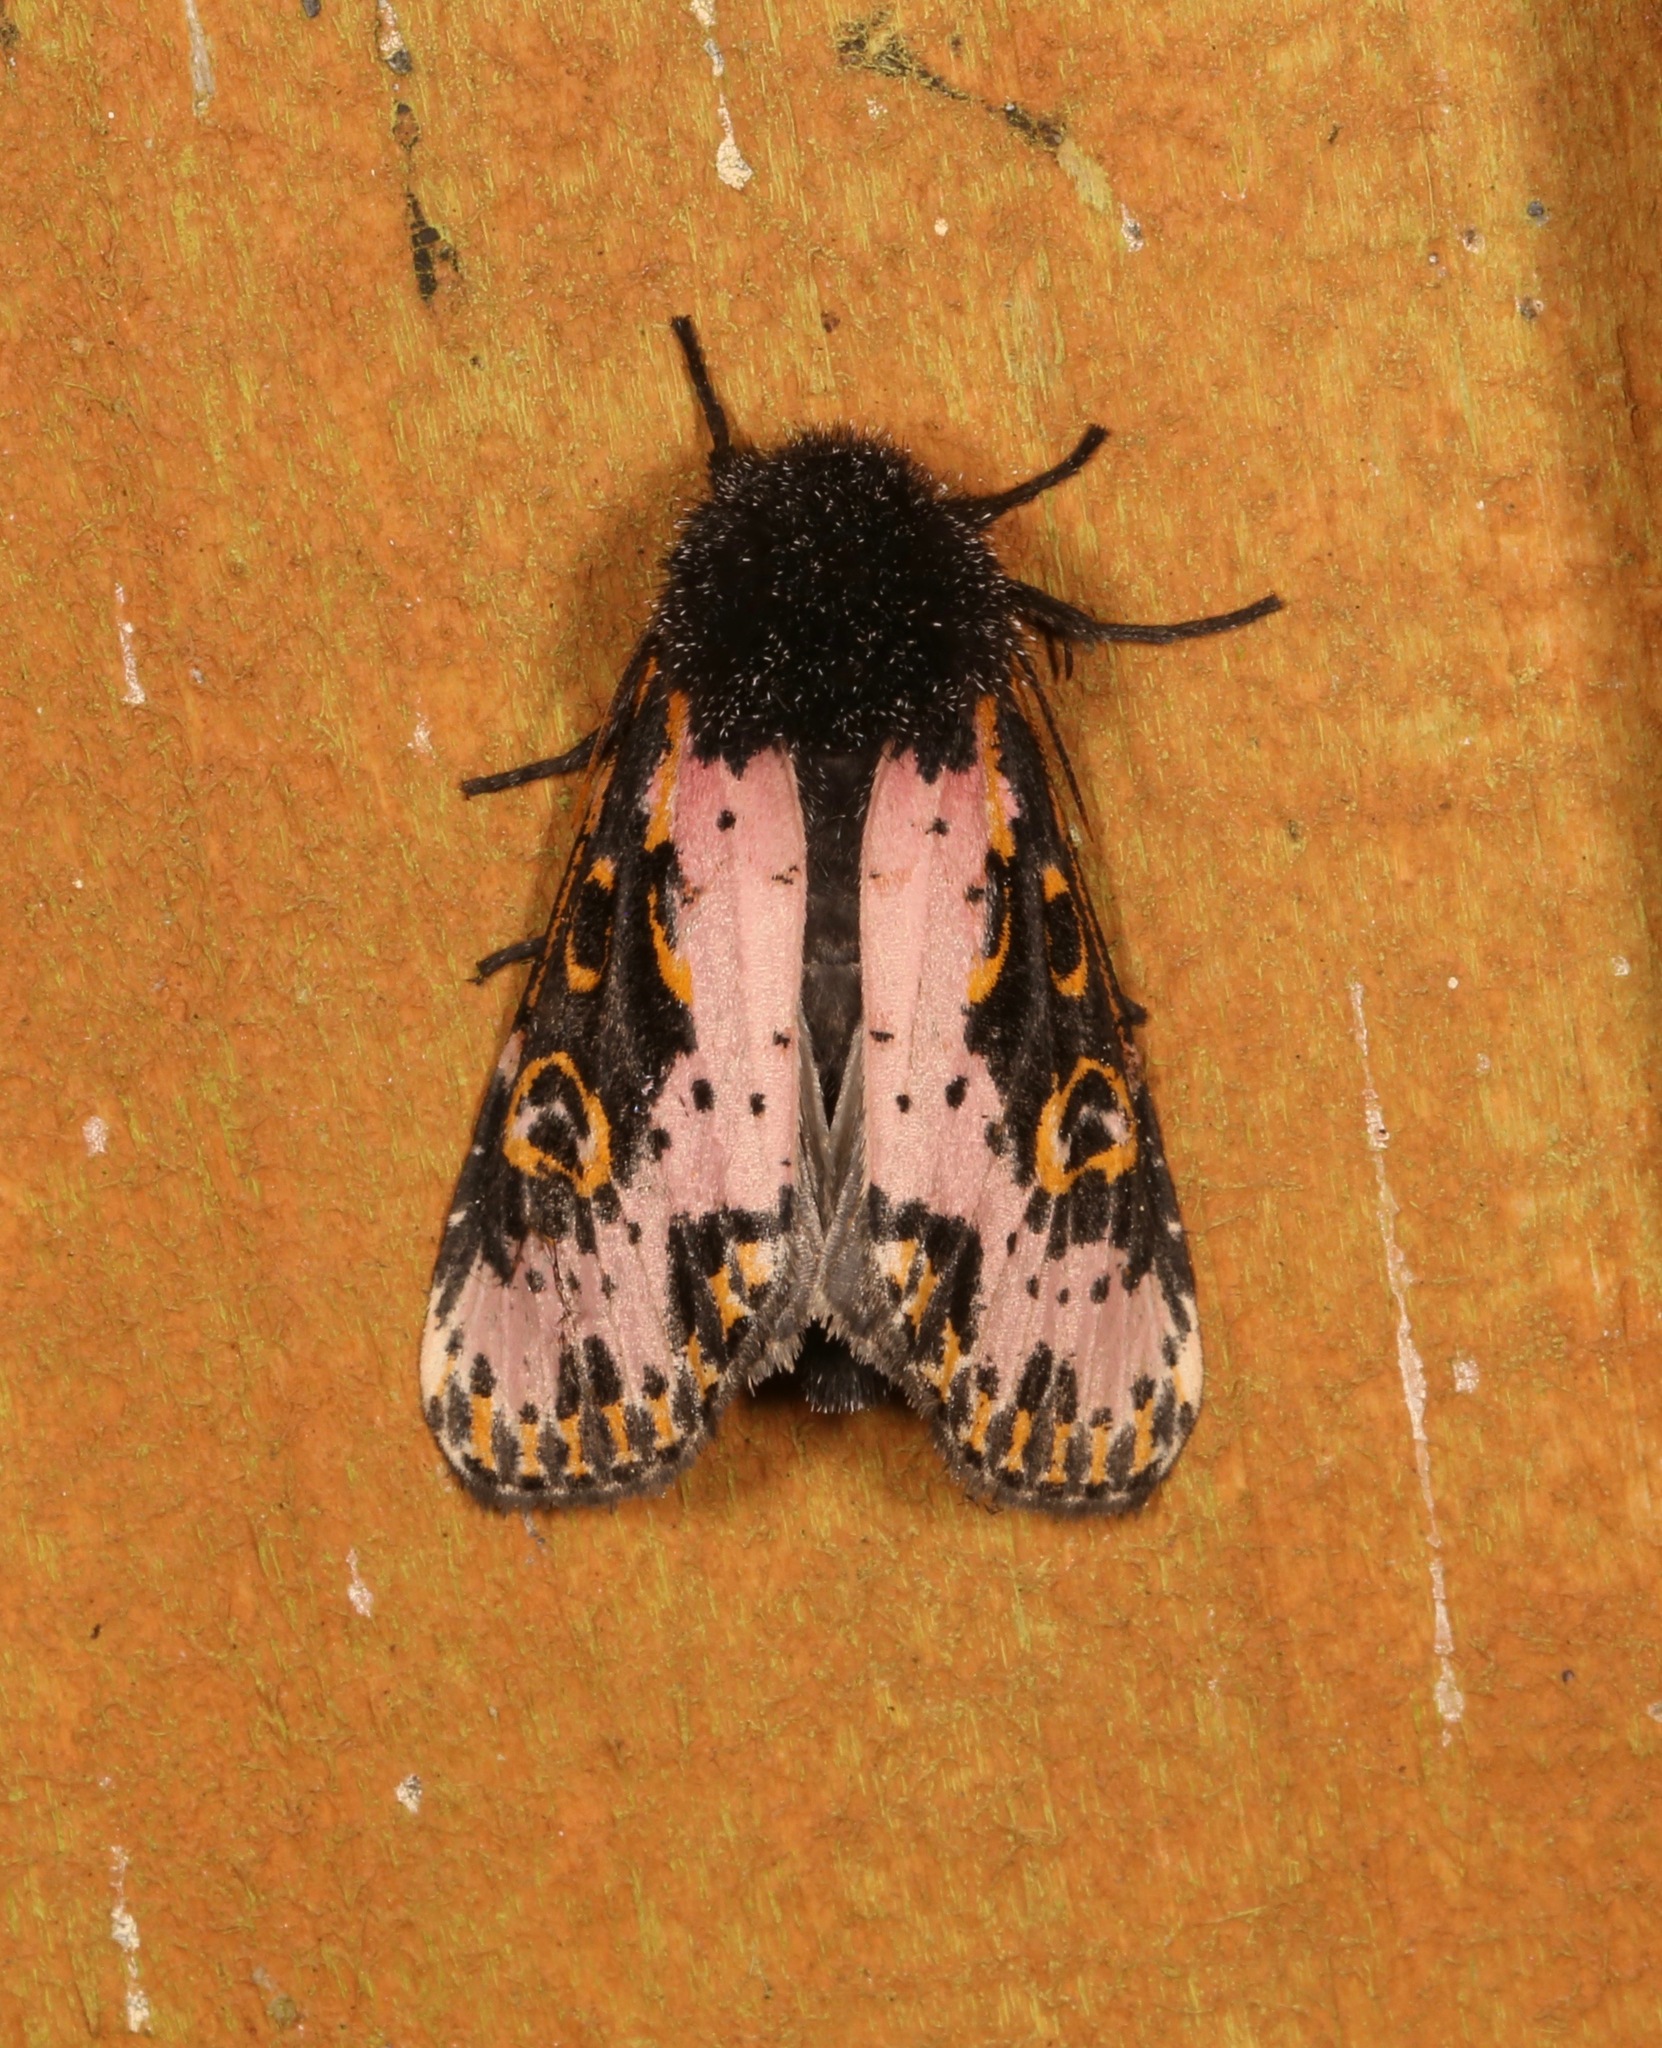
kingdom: Animalia
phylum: Arthropoda
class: Insecta
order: Lepidoptera
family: Noctuidae
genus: Xanthopastis
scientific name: Xanthopastis regnatrix
